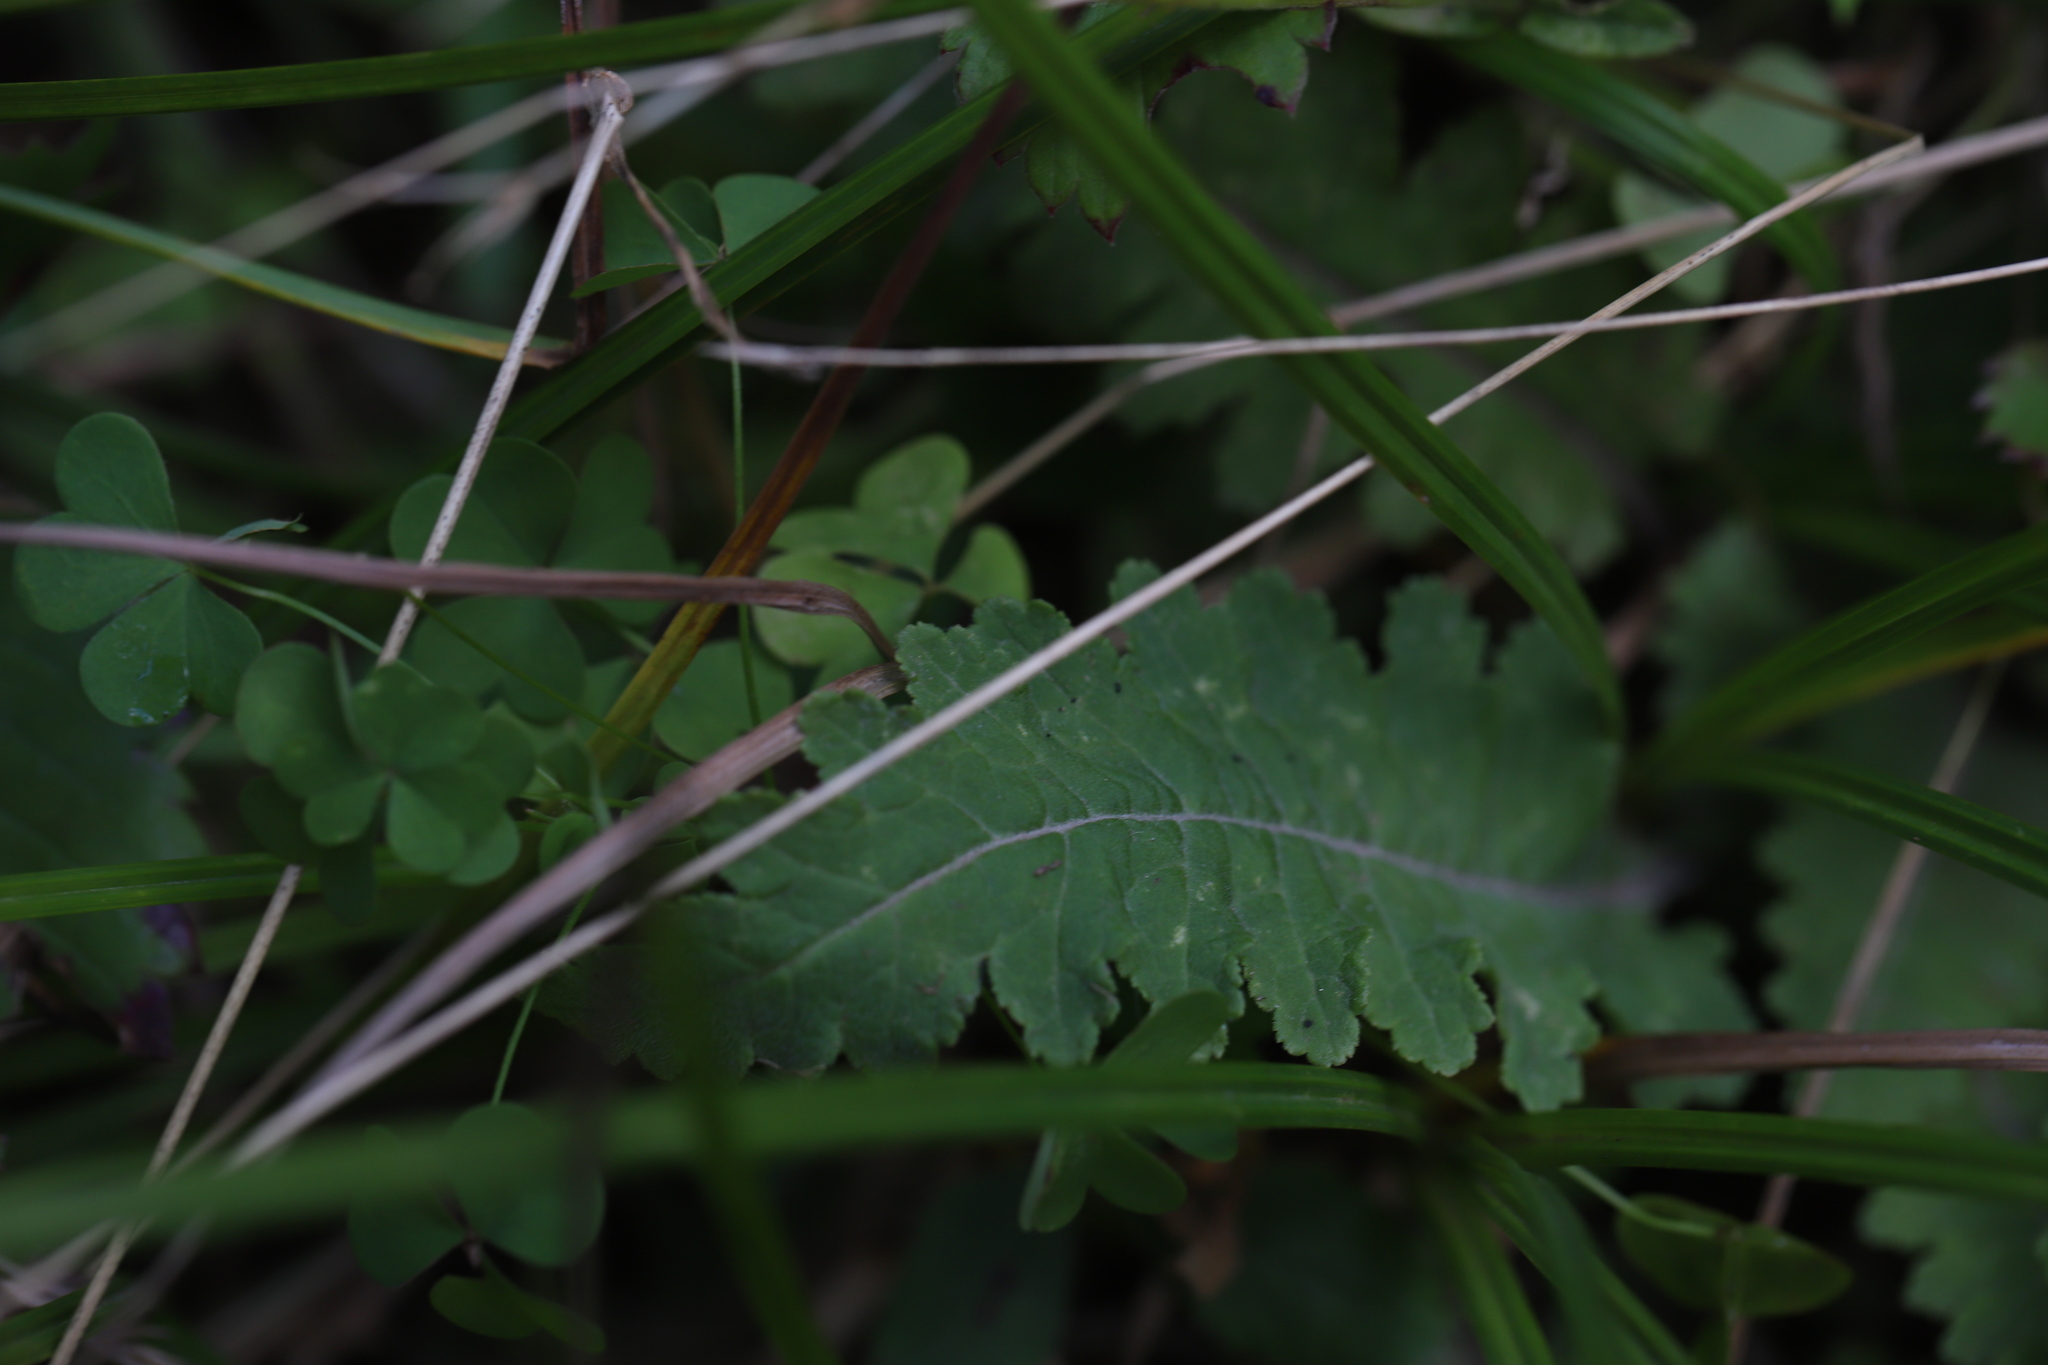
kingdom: Plantae
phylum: Tracheophyta
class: Magnoliopsida
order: Lamiales
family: Orobanchaceae
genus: Pedicularis
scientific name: Pedicularis canadensis
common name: Early lousewort
